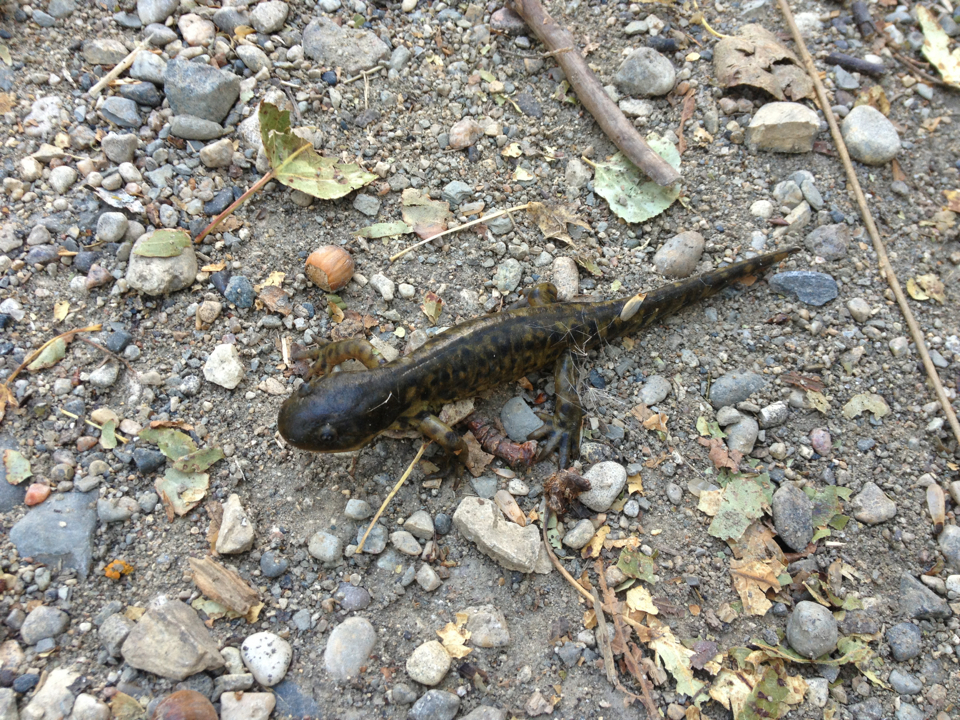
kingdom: Animalia
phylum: Chordata
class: Amphibia
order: Caudata
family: Ambystomatidae
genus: Ambystoma
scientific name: Ambystoma mavortium
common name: Western tiger salamander
